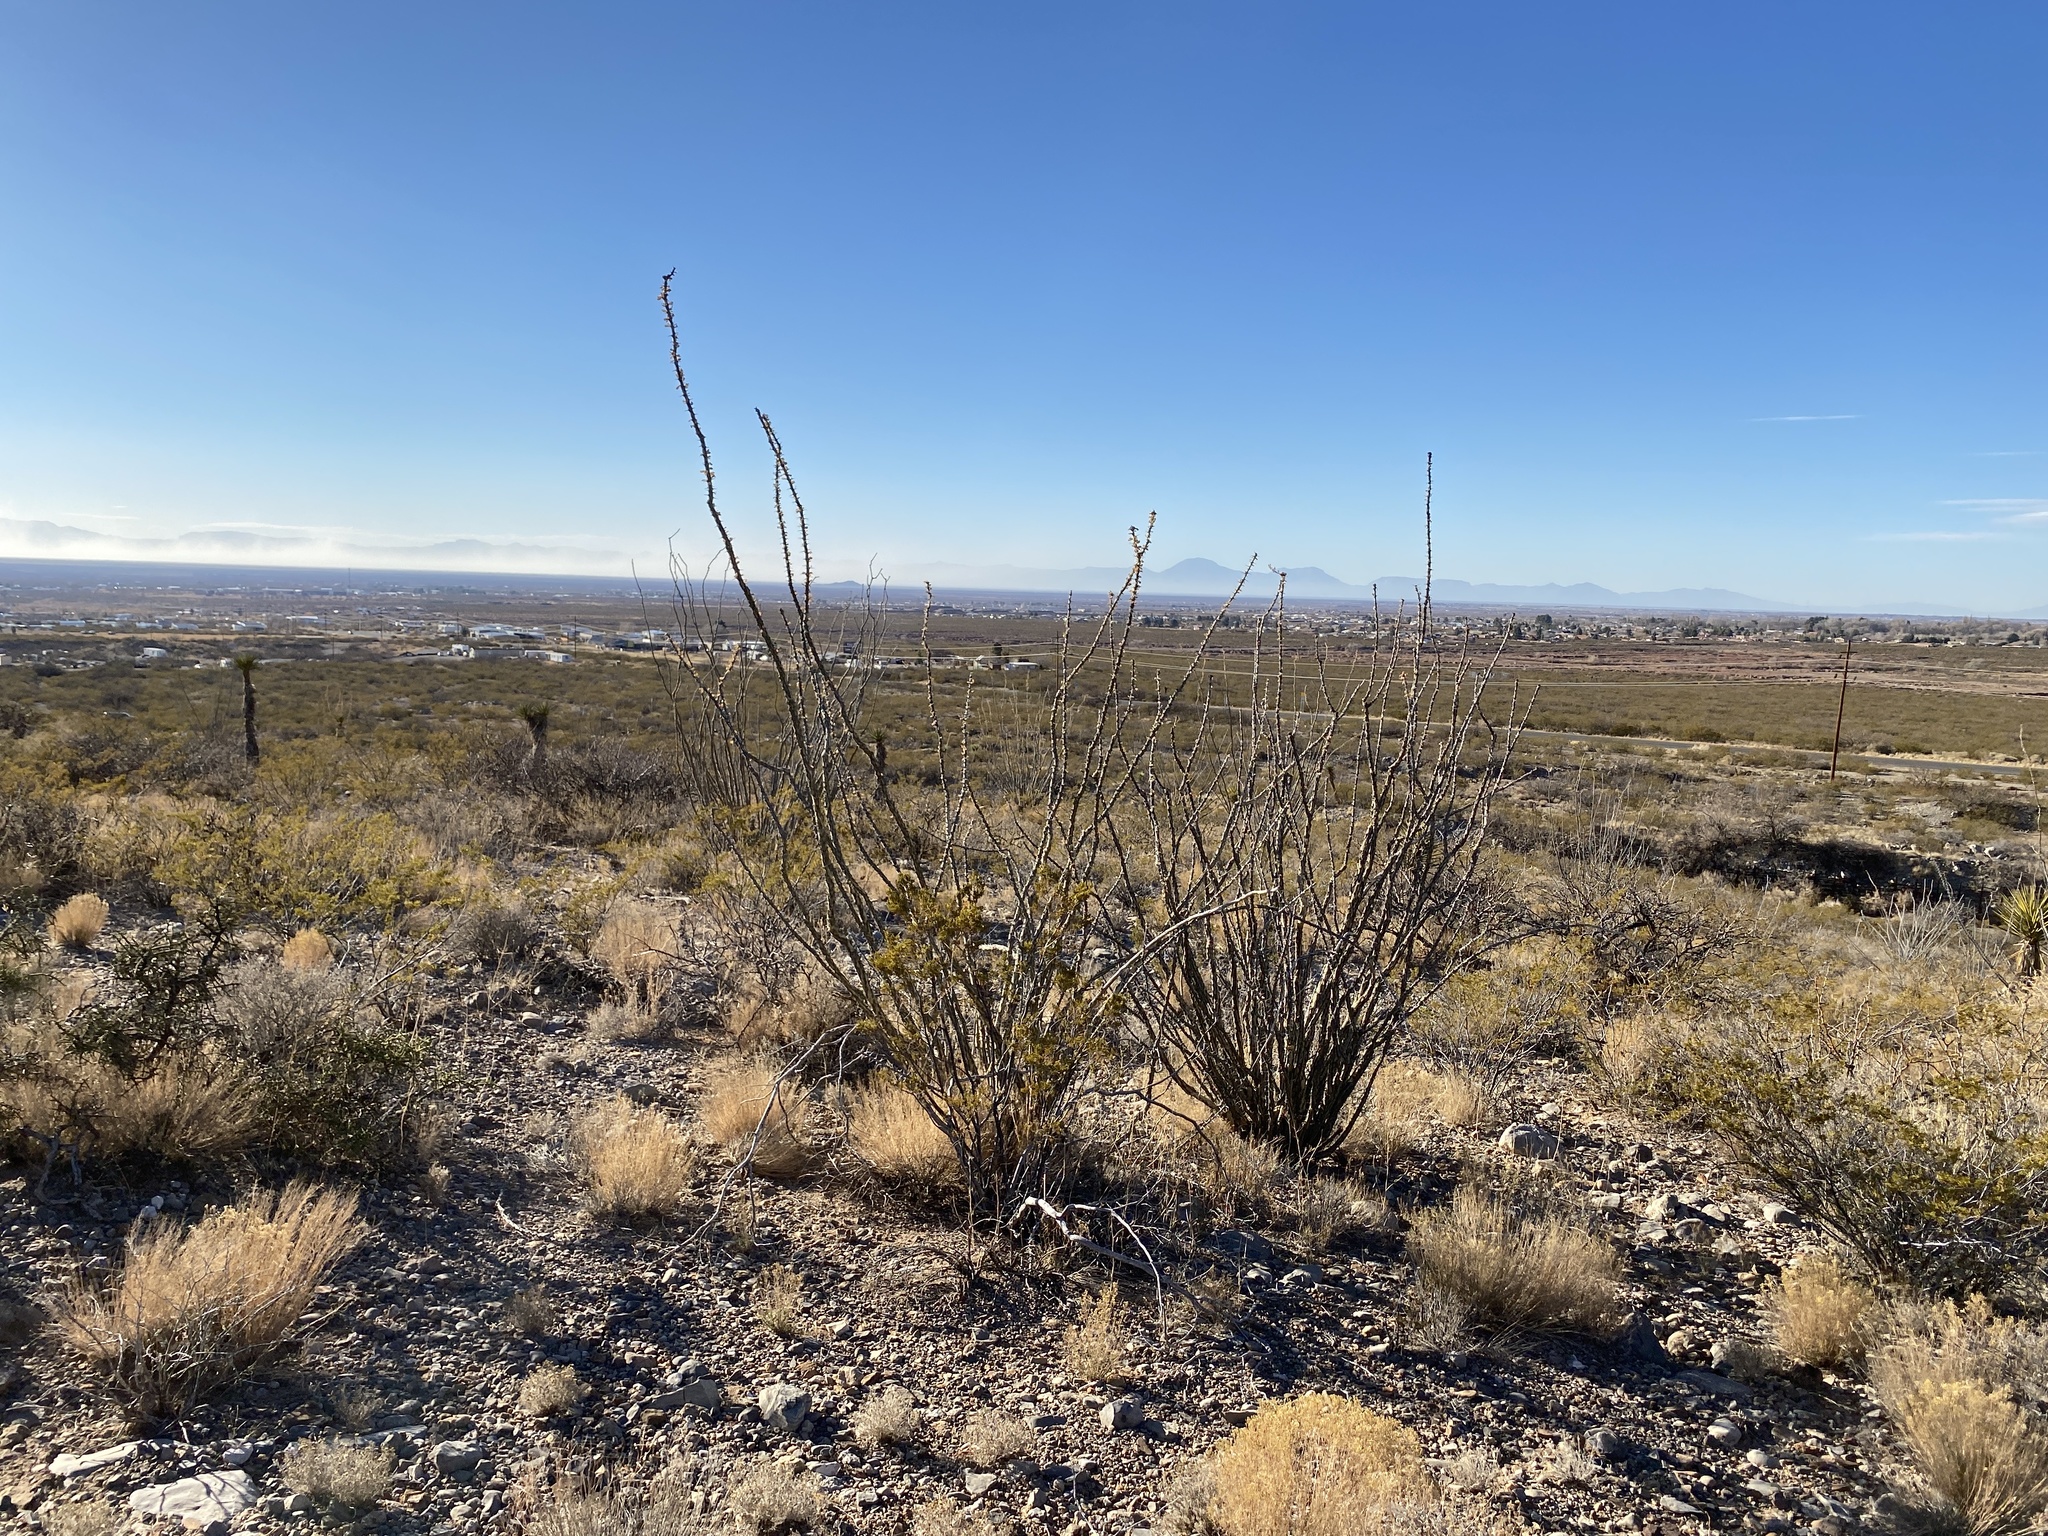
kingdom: Plantae
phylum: Tracheophyta
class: Magnoliopsida
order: Ericales
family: Fouquieriaceae
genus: Fouquieria
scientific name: Fouquieria splendens
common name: Vine-cactus
